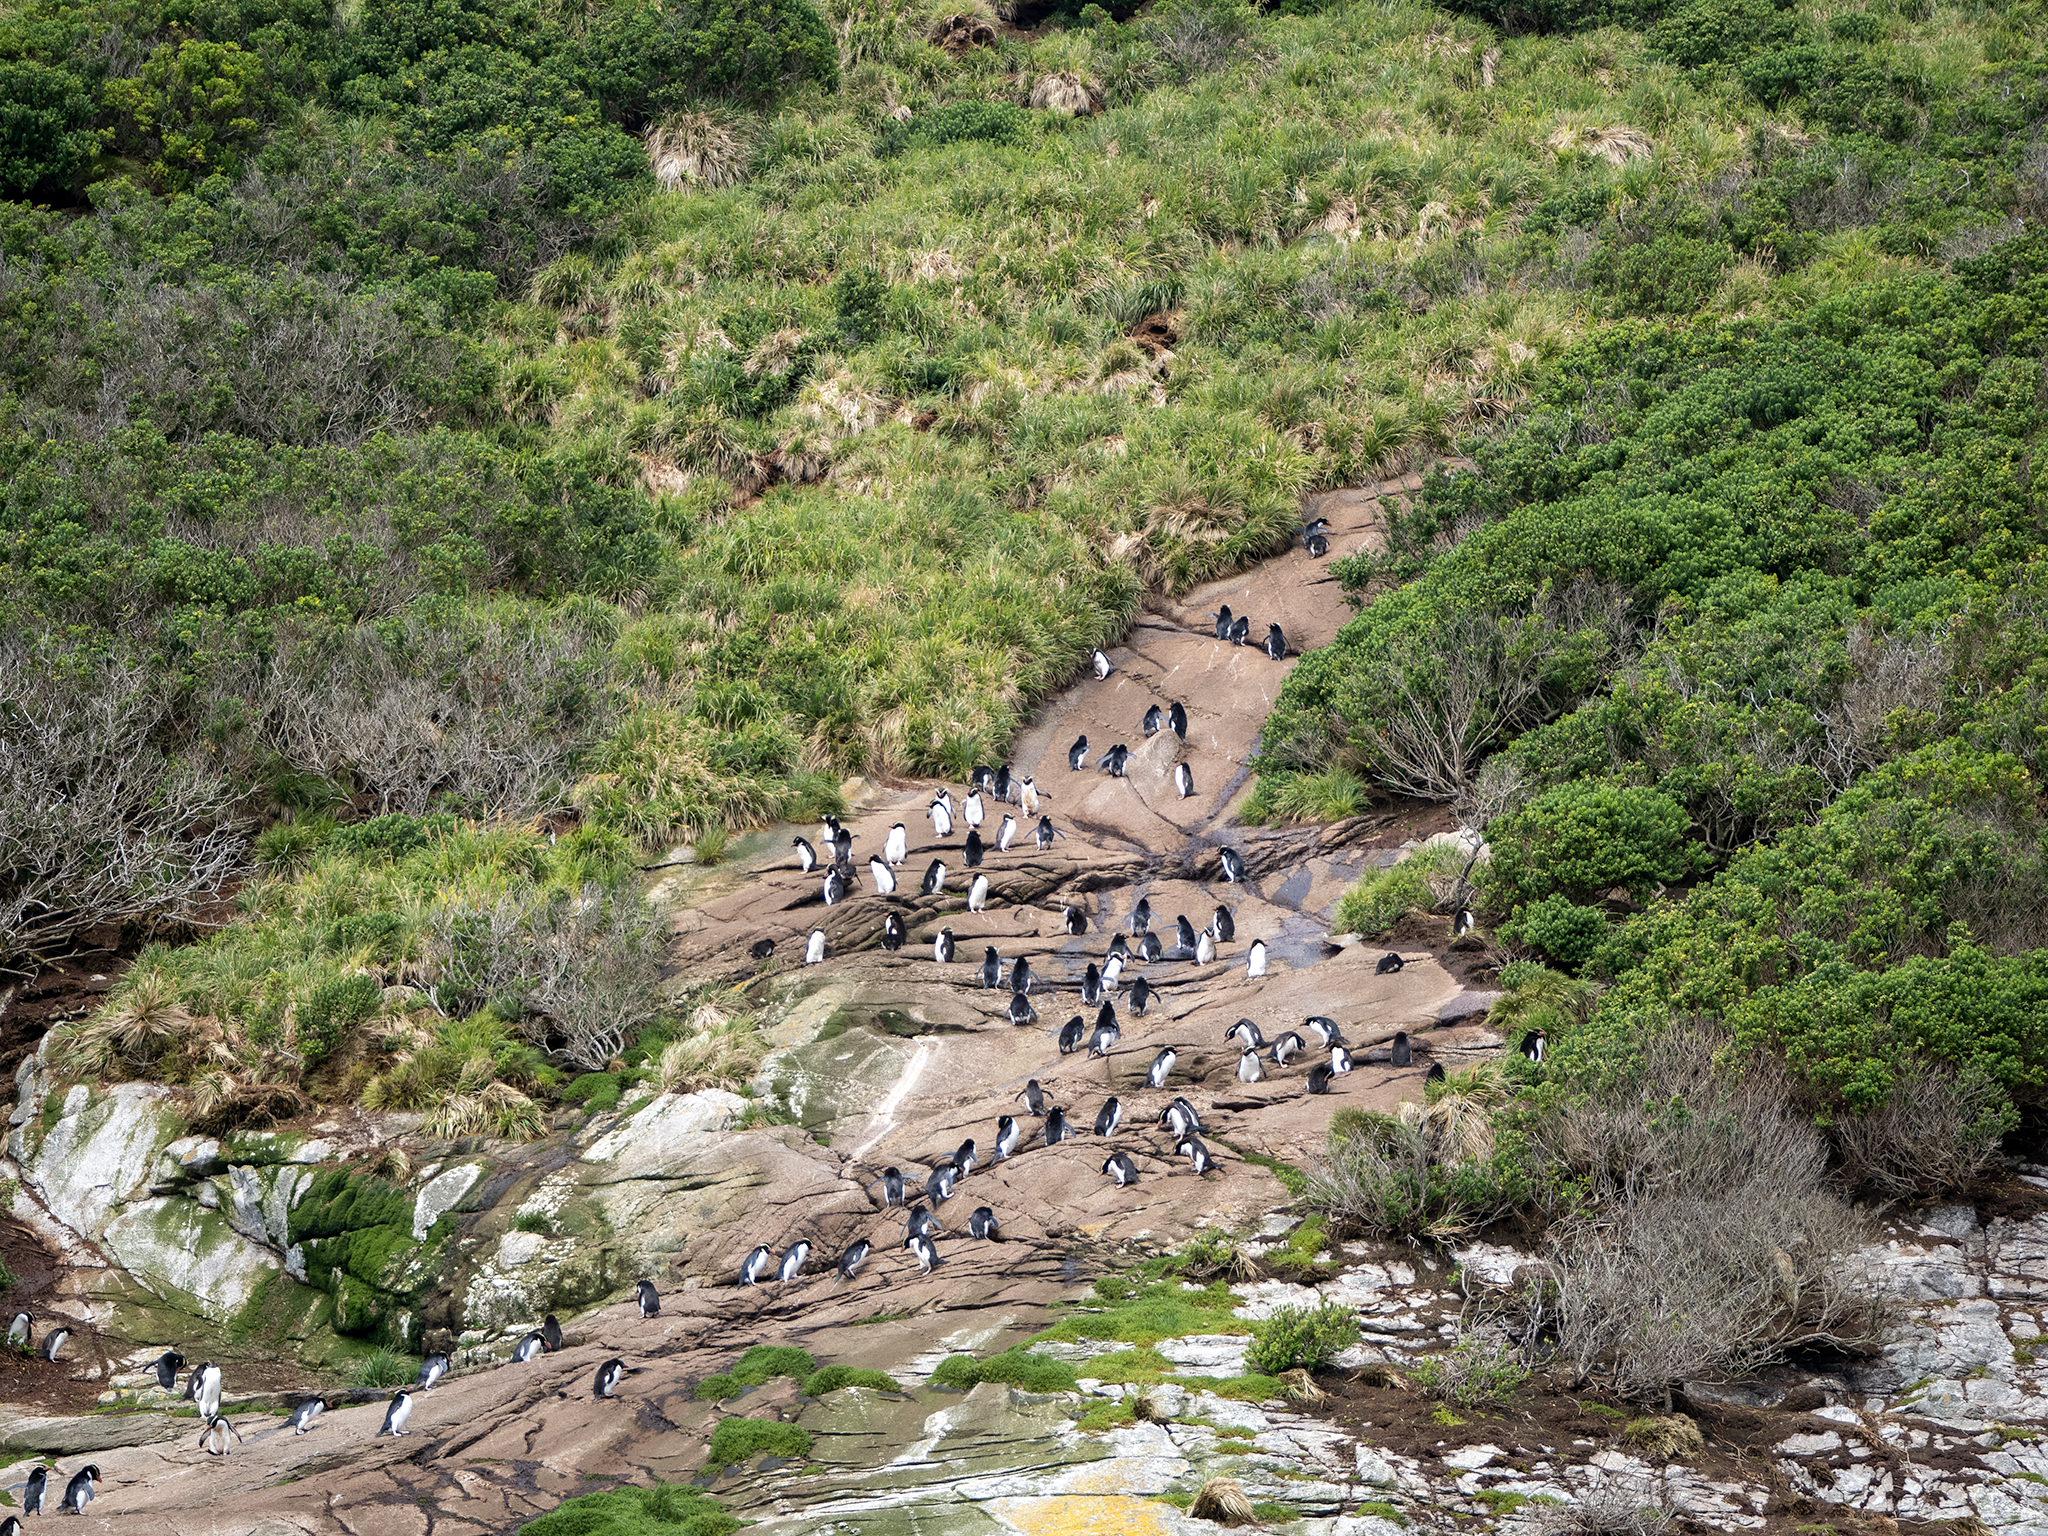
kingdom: Animalia
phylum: Chordata
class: Aves
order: Sphenisciformes
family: Spheniscidae
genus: Eudyptes
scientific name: Eudyptes robustus
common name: Snares penguin
